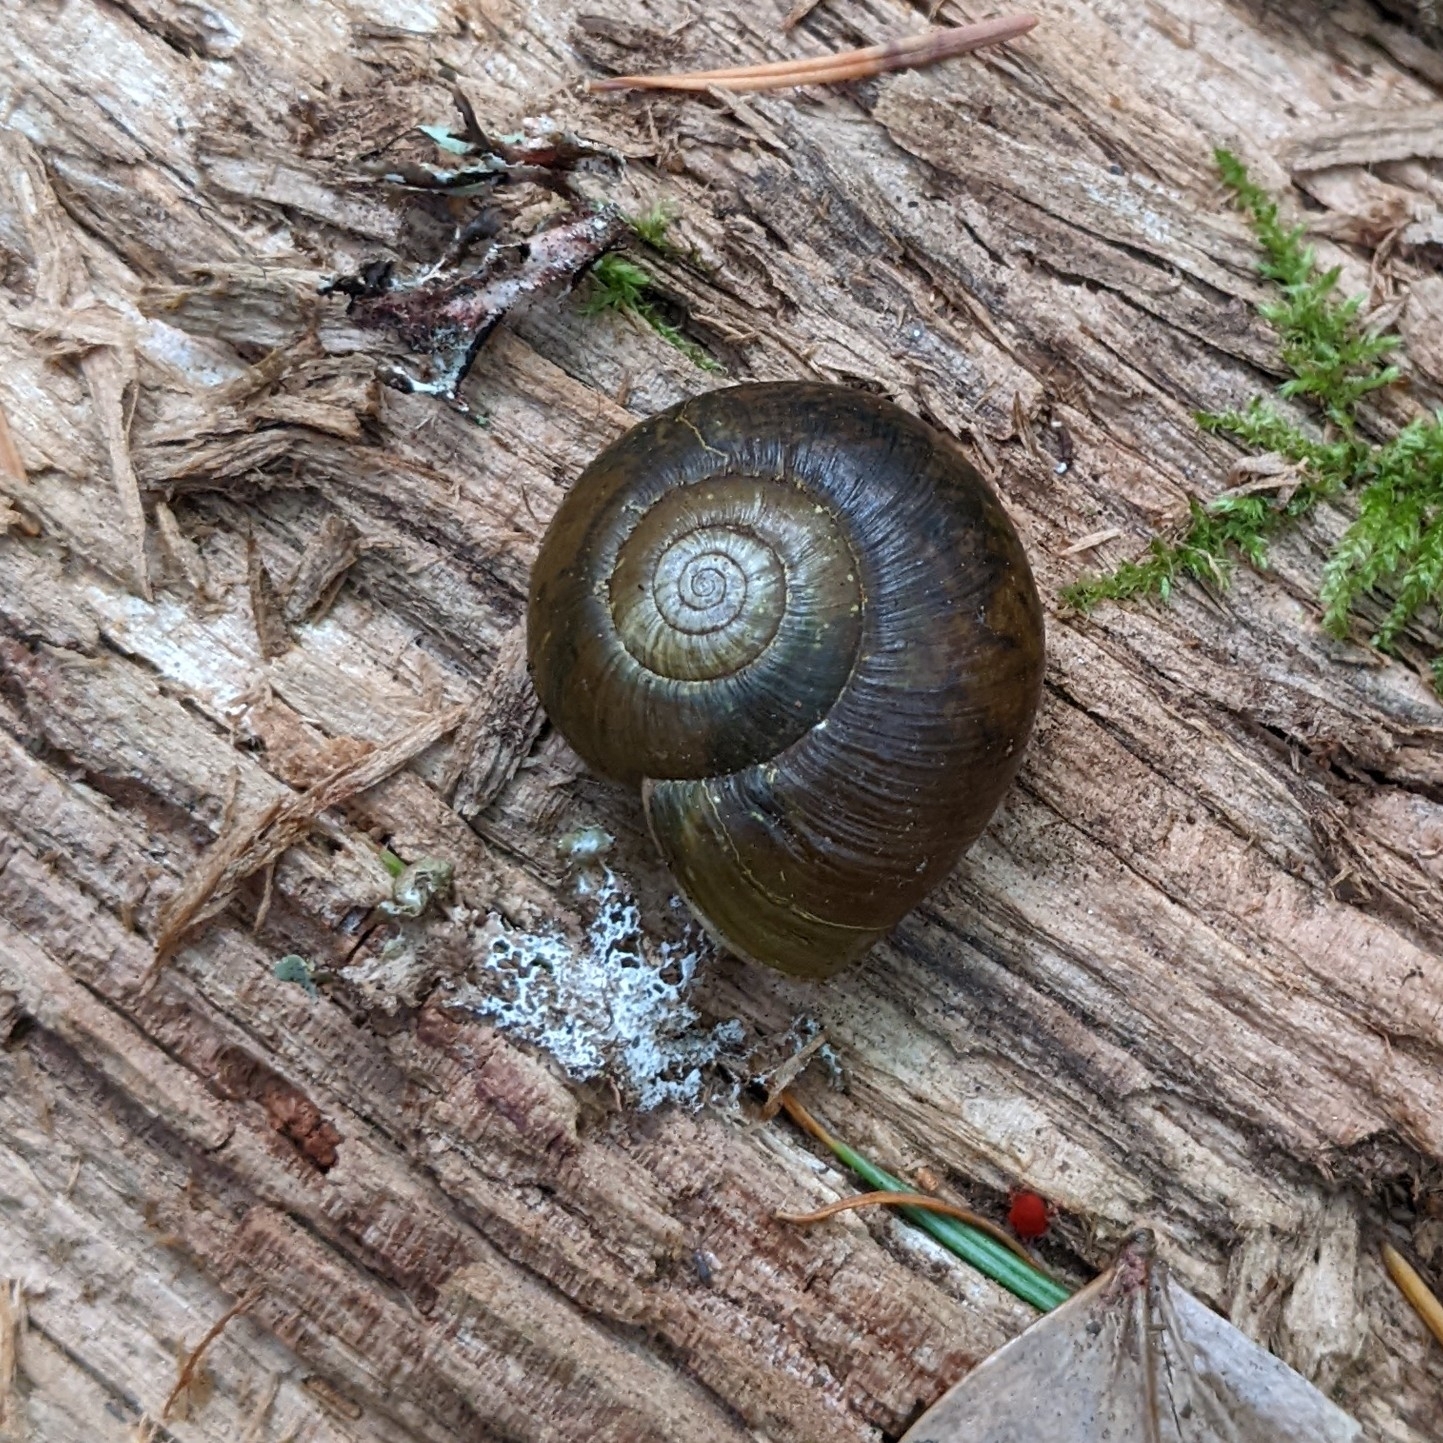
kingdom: Animalia
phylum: Mollusca
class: Gastropoda
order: Stylommatophora
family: Haplotrematidae
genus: Haplotrema
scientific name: Haplotrema vancouverense
